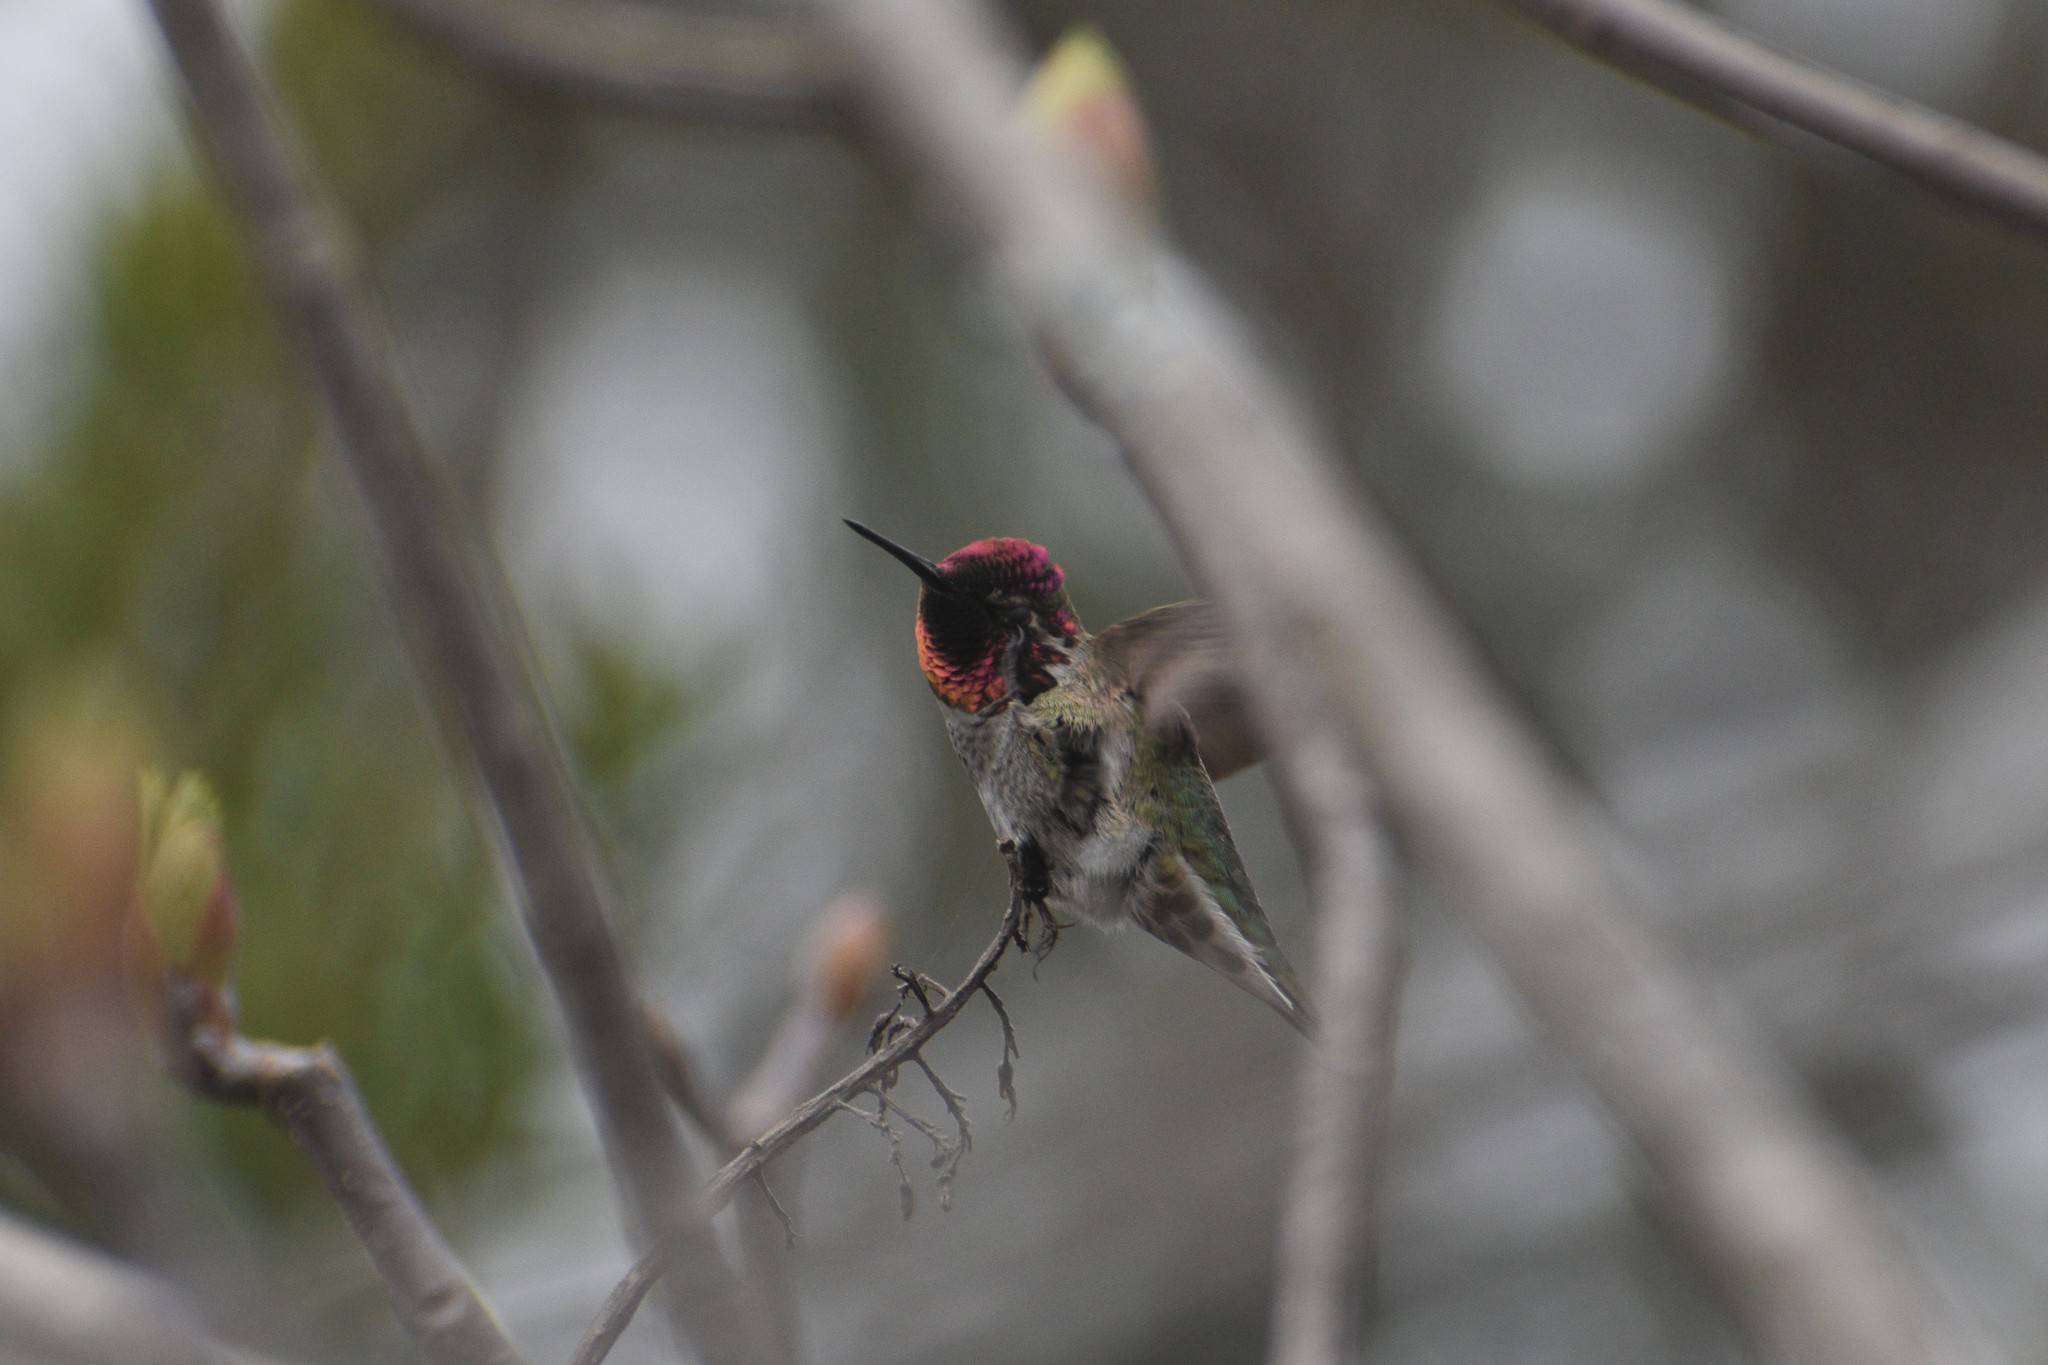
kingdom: Animalia
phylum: Chordata
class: Aves
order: Apodiformes
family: Trochilidae
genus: Calypte
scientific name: Calypte anna
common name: Anna's hummingbird
